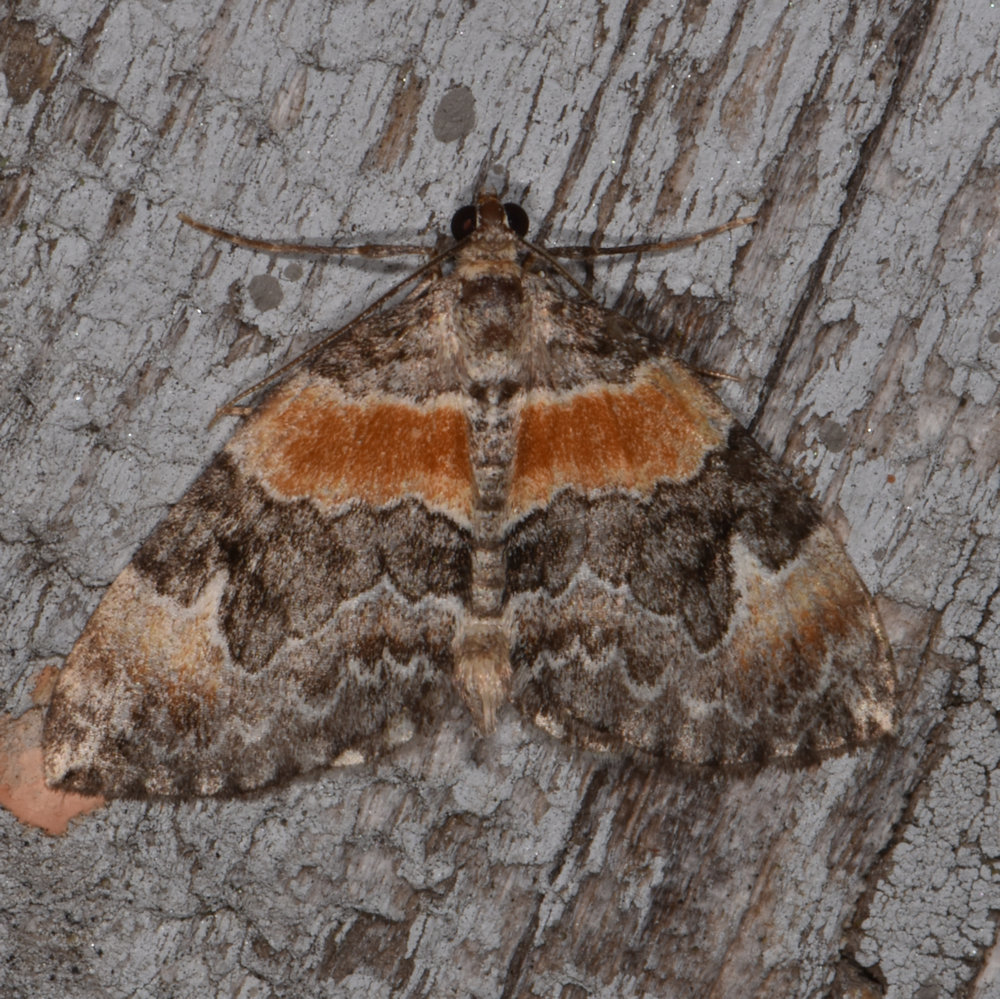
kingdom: Animalia
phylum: Arthropoda
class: Insecta
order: Lepidoptera
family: Geometridae
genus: Dysstroma
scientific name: Dysstroma hersiliata
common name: Orange-barred carpet
